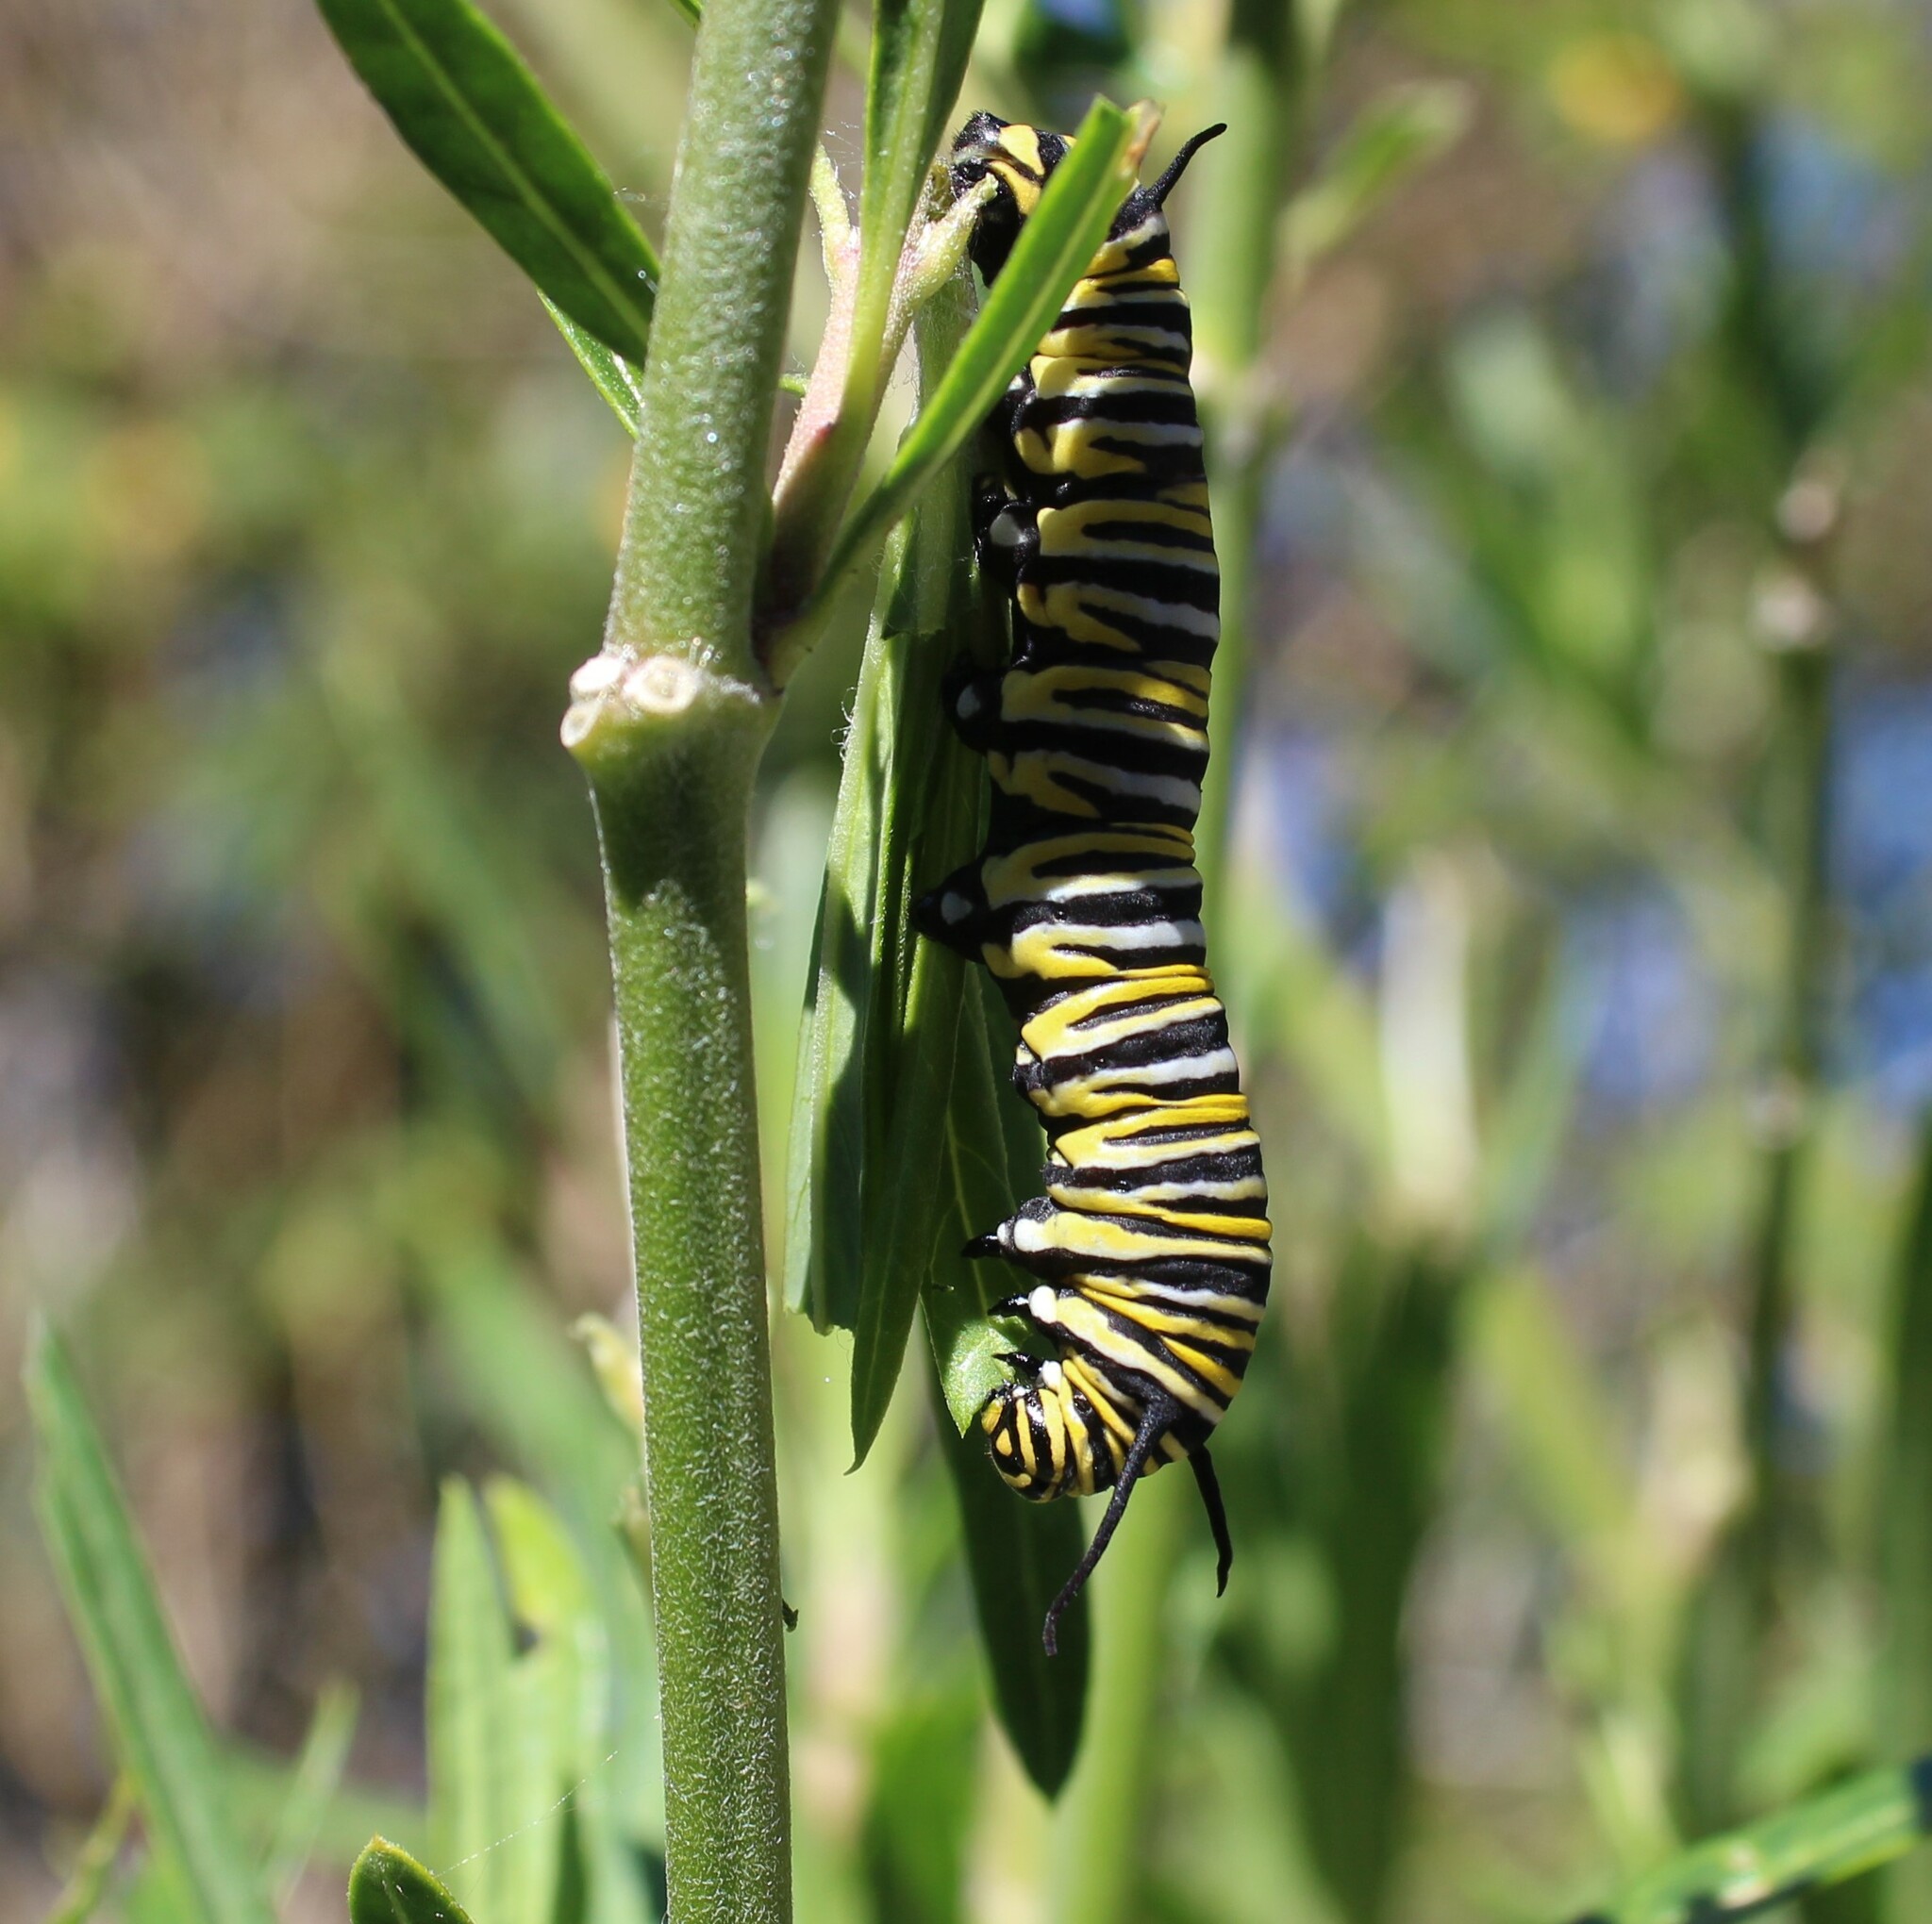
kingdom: Animalia
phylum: Arthropoda
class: Insecta
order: Lepidoptera
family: Nymphalidae
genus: Danaus
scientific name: Danaus plexippus
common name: Monarch
